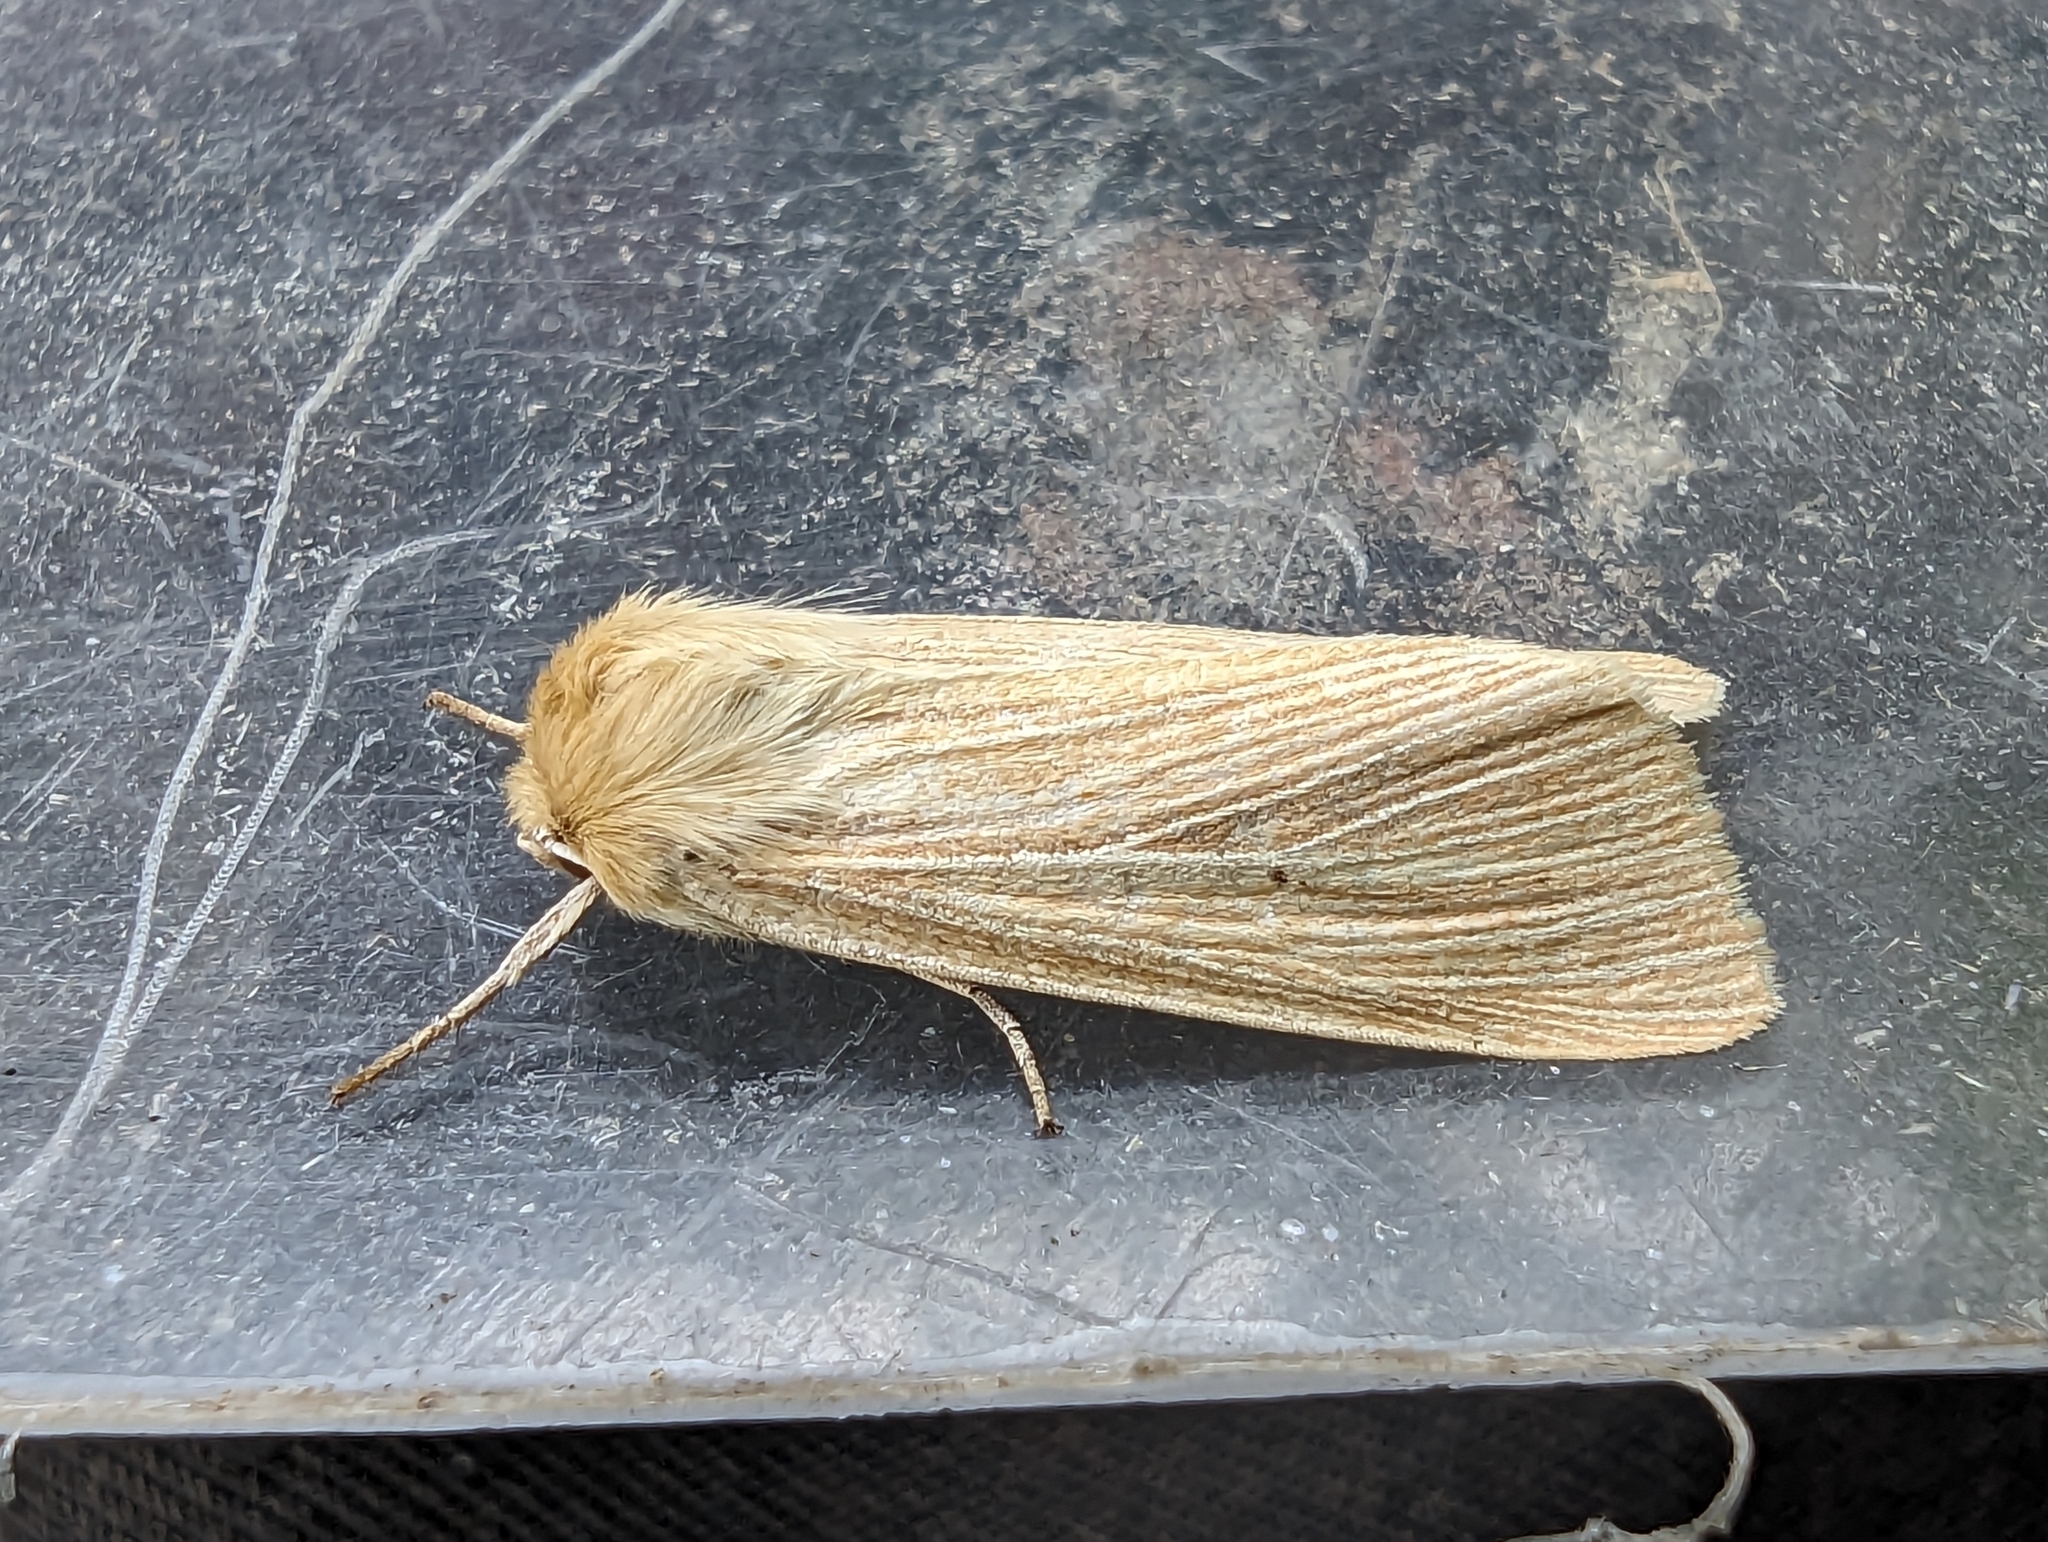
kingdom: Animalia
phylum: Arthropoda
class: Insecta
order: Lepidoptera
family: Noctuidae
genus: Mythimna
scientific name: Mythimna pallens
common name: Common wainscot
